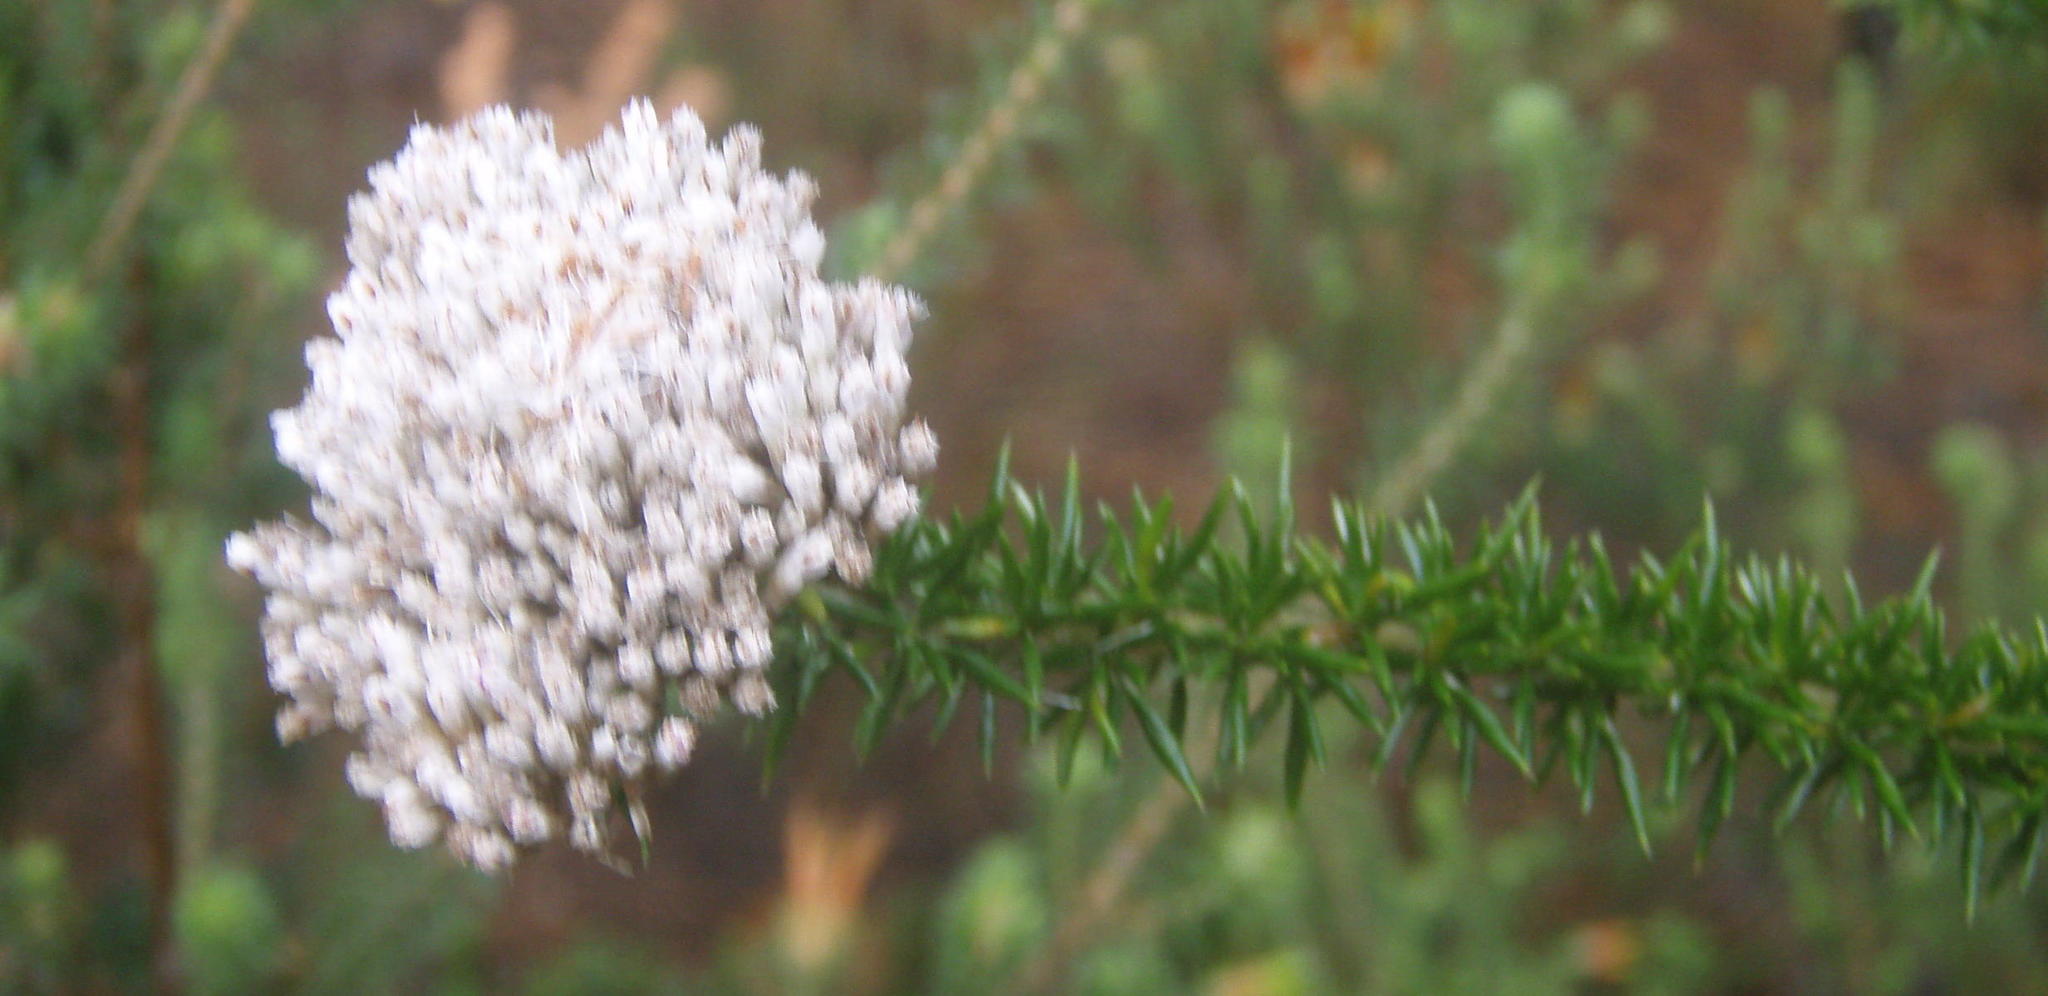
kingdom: Plantae
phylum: Tracheophyta
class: Magnoliopsida
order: Asterales
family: Asteraceae
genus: Metalasia
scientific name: Metalasia densa
